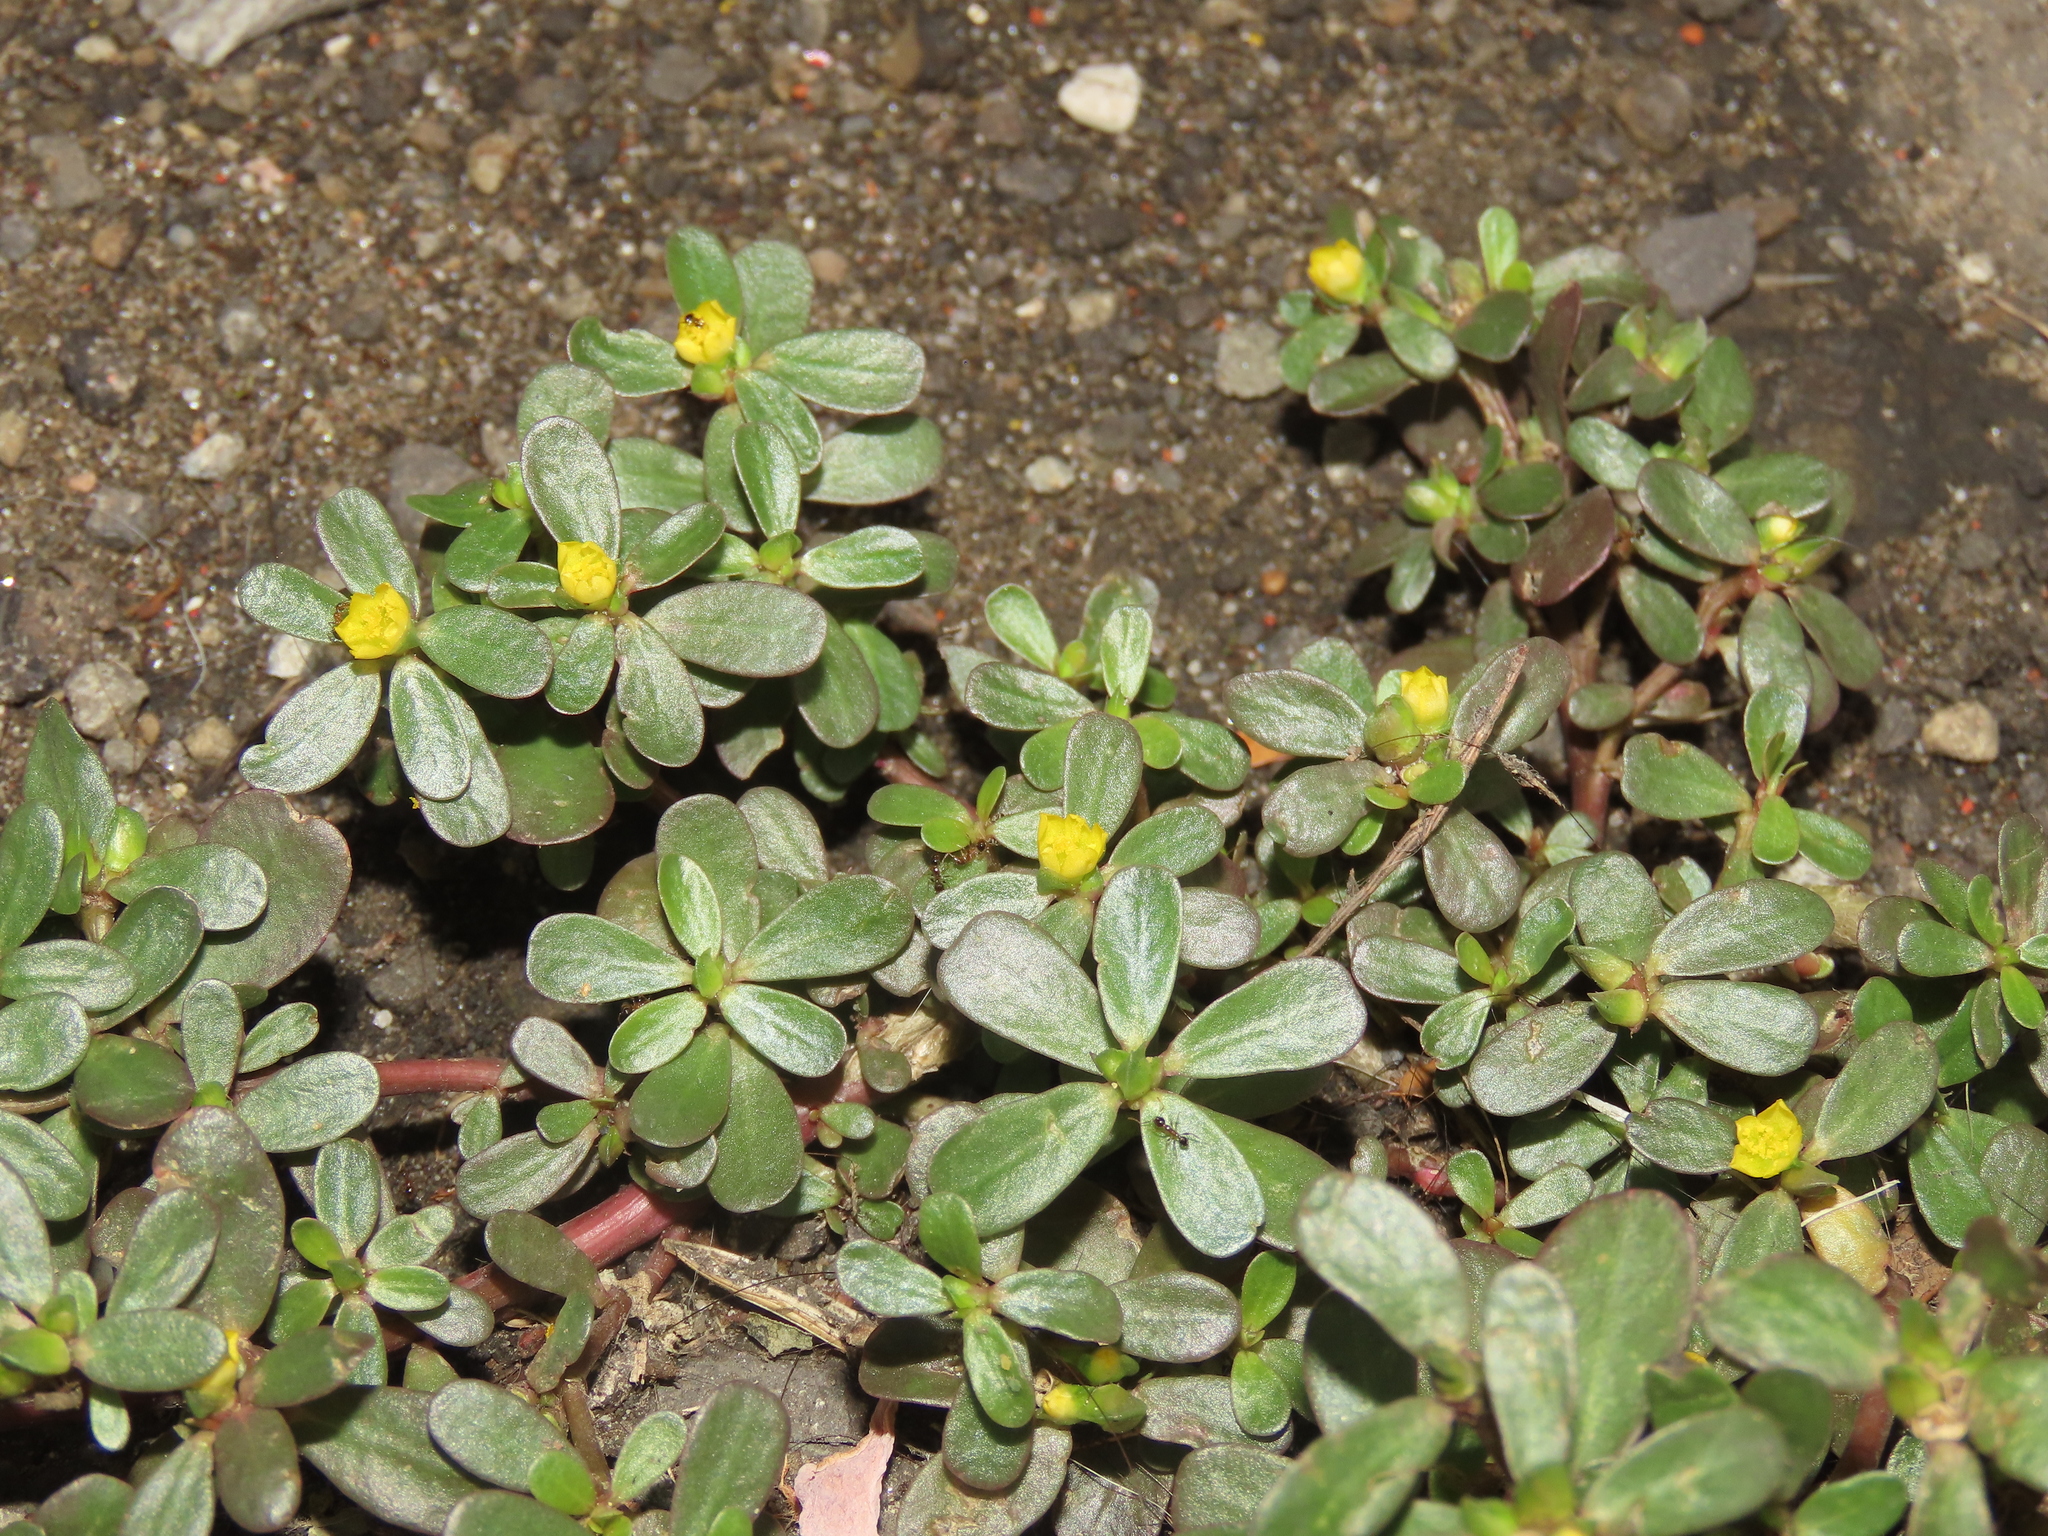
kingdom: Plantae
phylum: Tracheophyta
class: Magnoliopsida
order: Caryophyllales
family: Portulacaceae
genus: Portulaca
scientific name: Portulaca oleracea
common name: Common purslane
